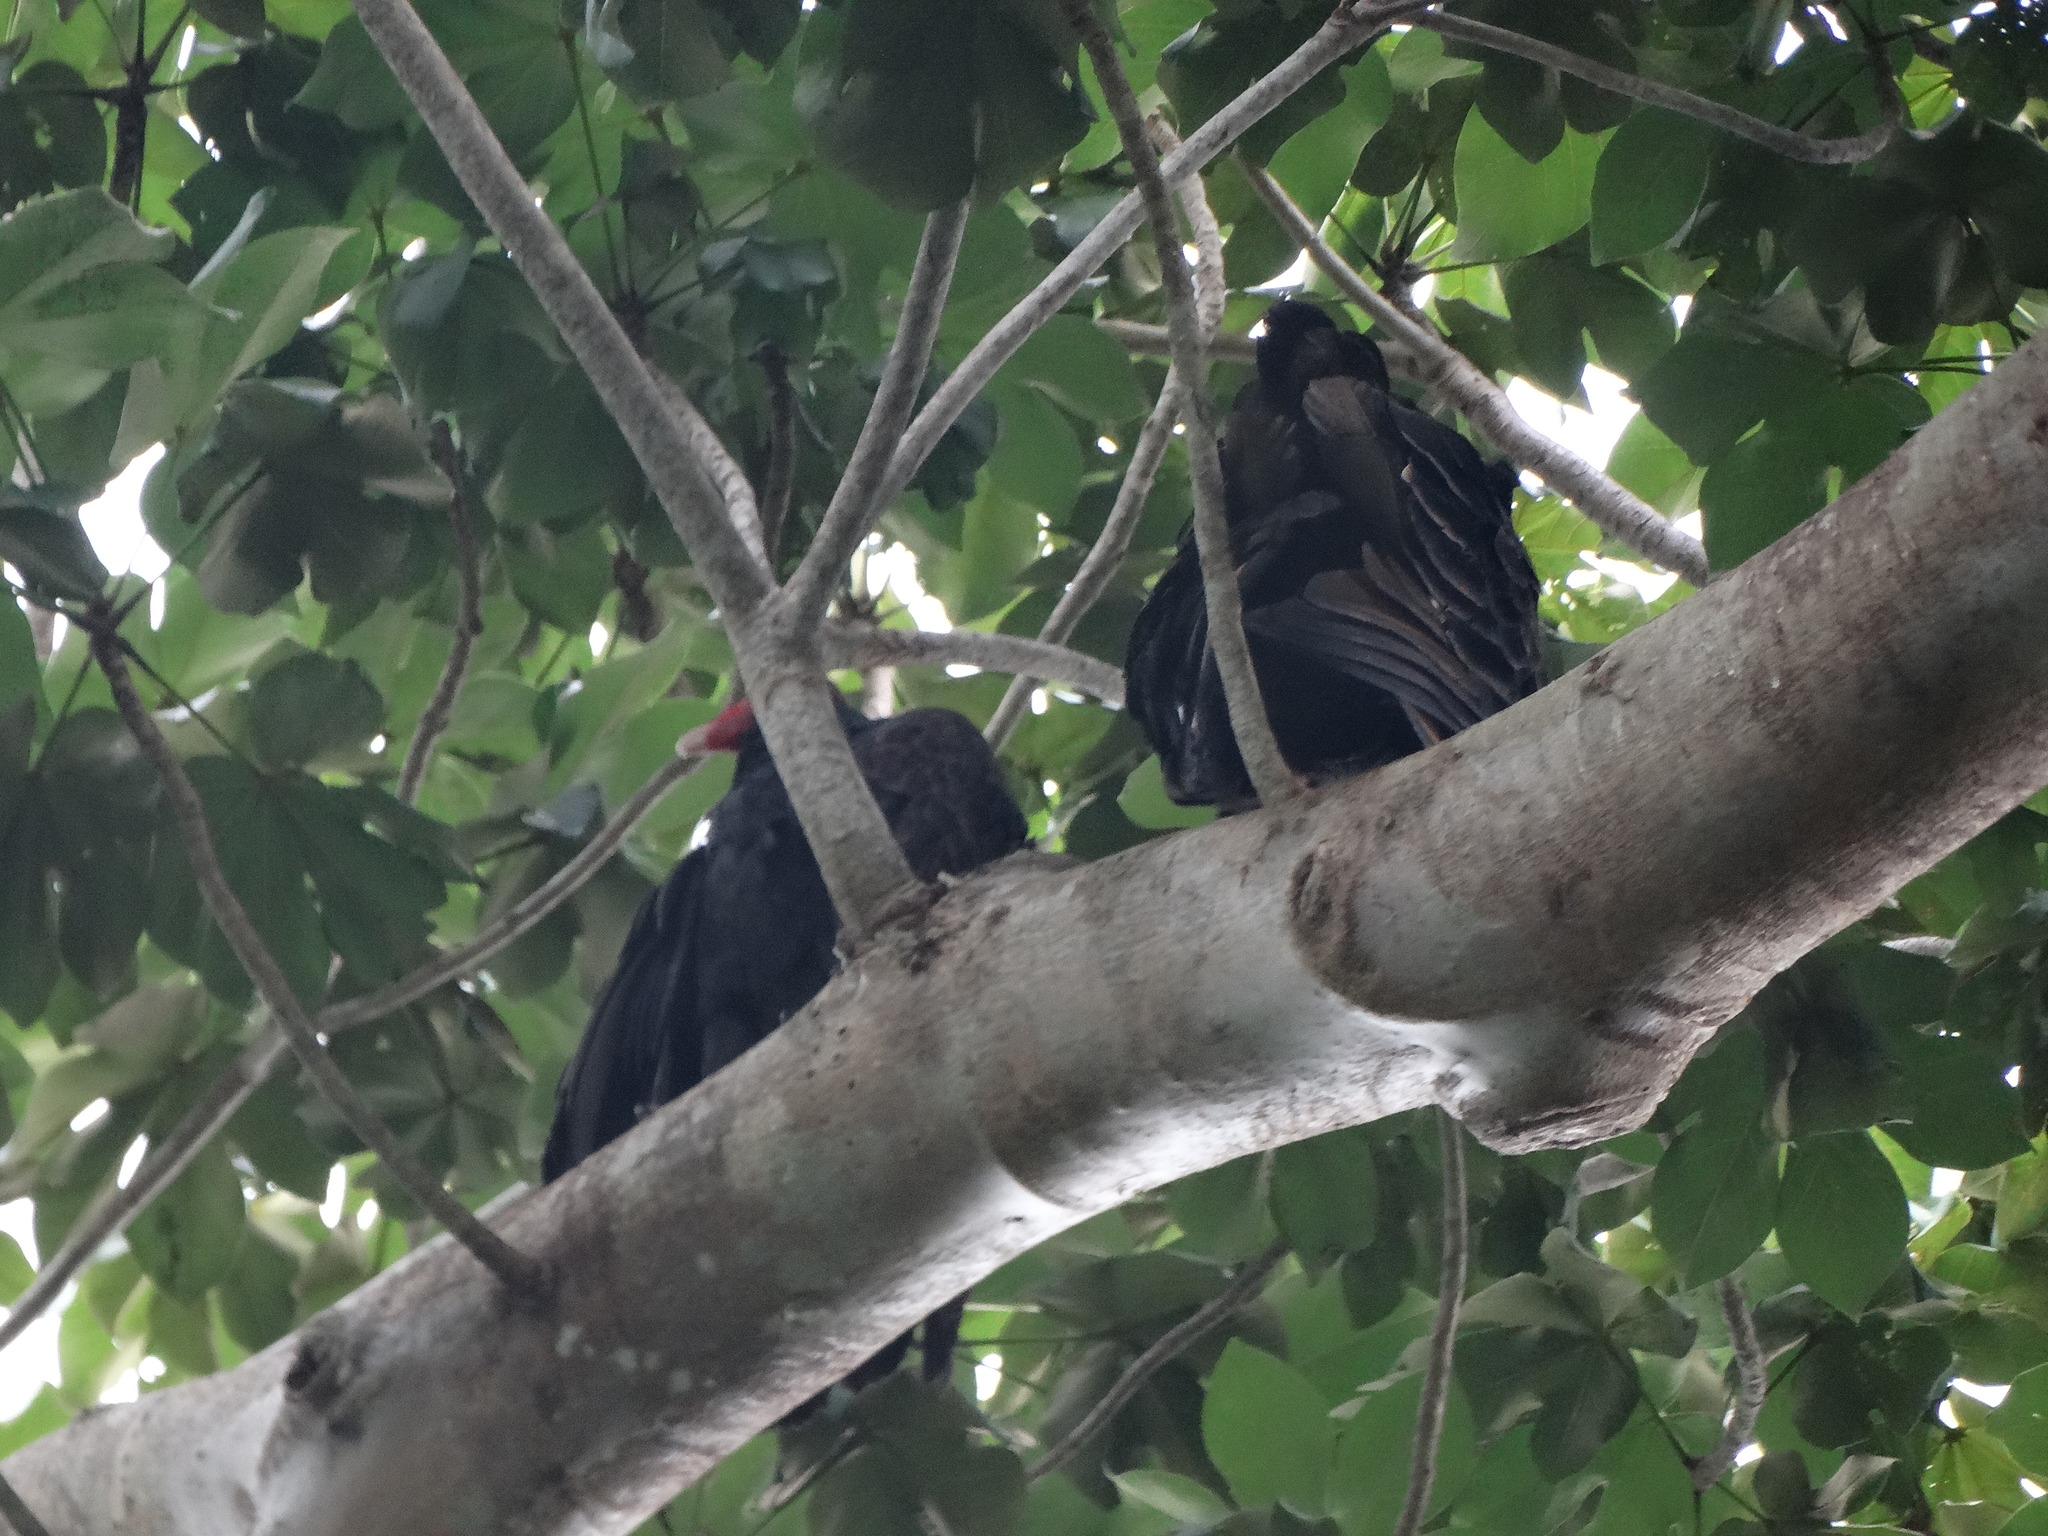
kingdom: Animalia
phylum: Chordata
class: Aves
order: Accipitriformes
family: Cathartidae
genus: Cathartes
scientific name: Cathartes aura
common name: Turkey vulture
